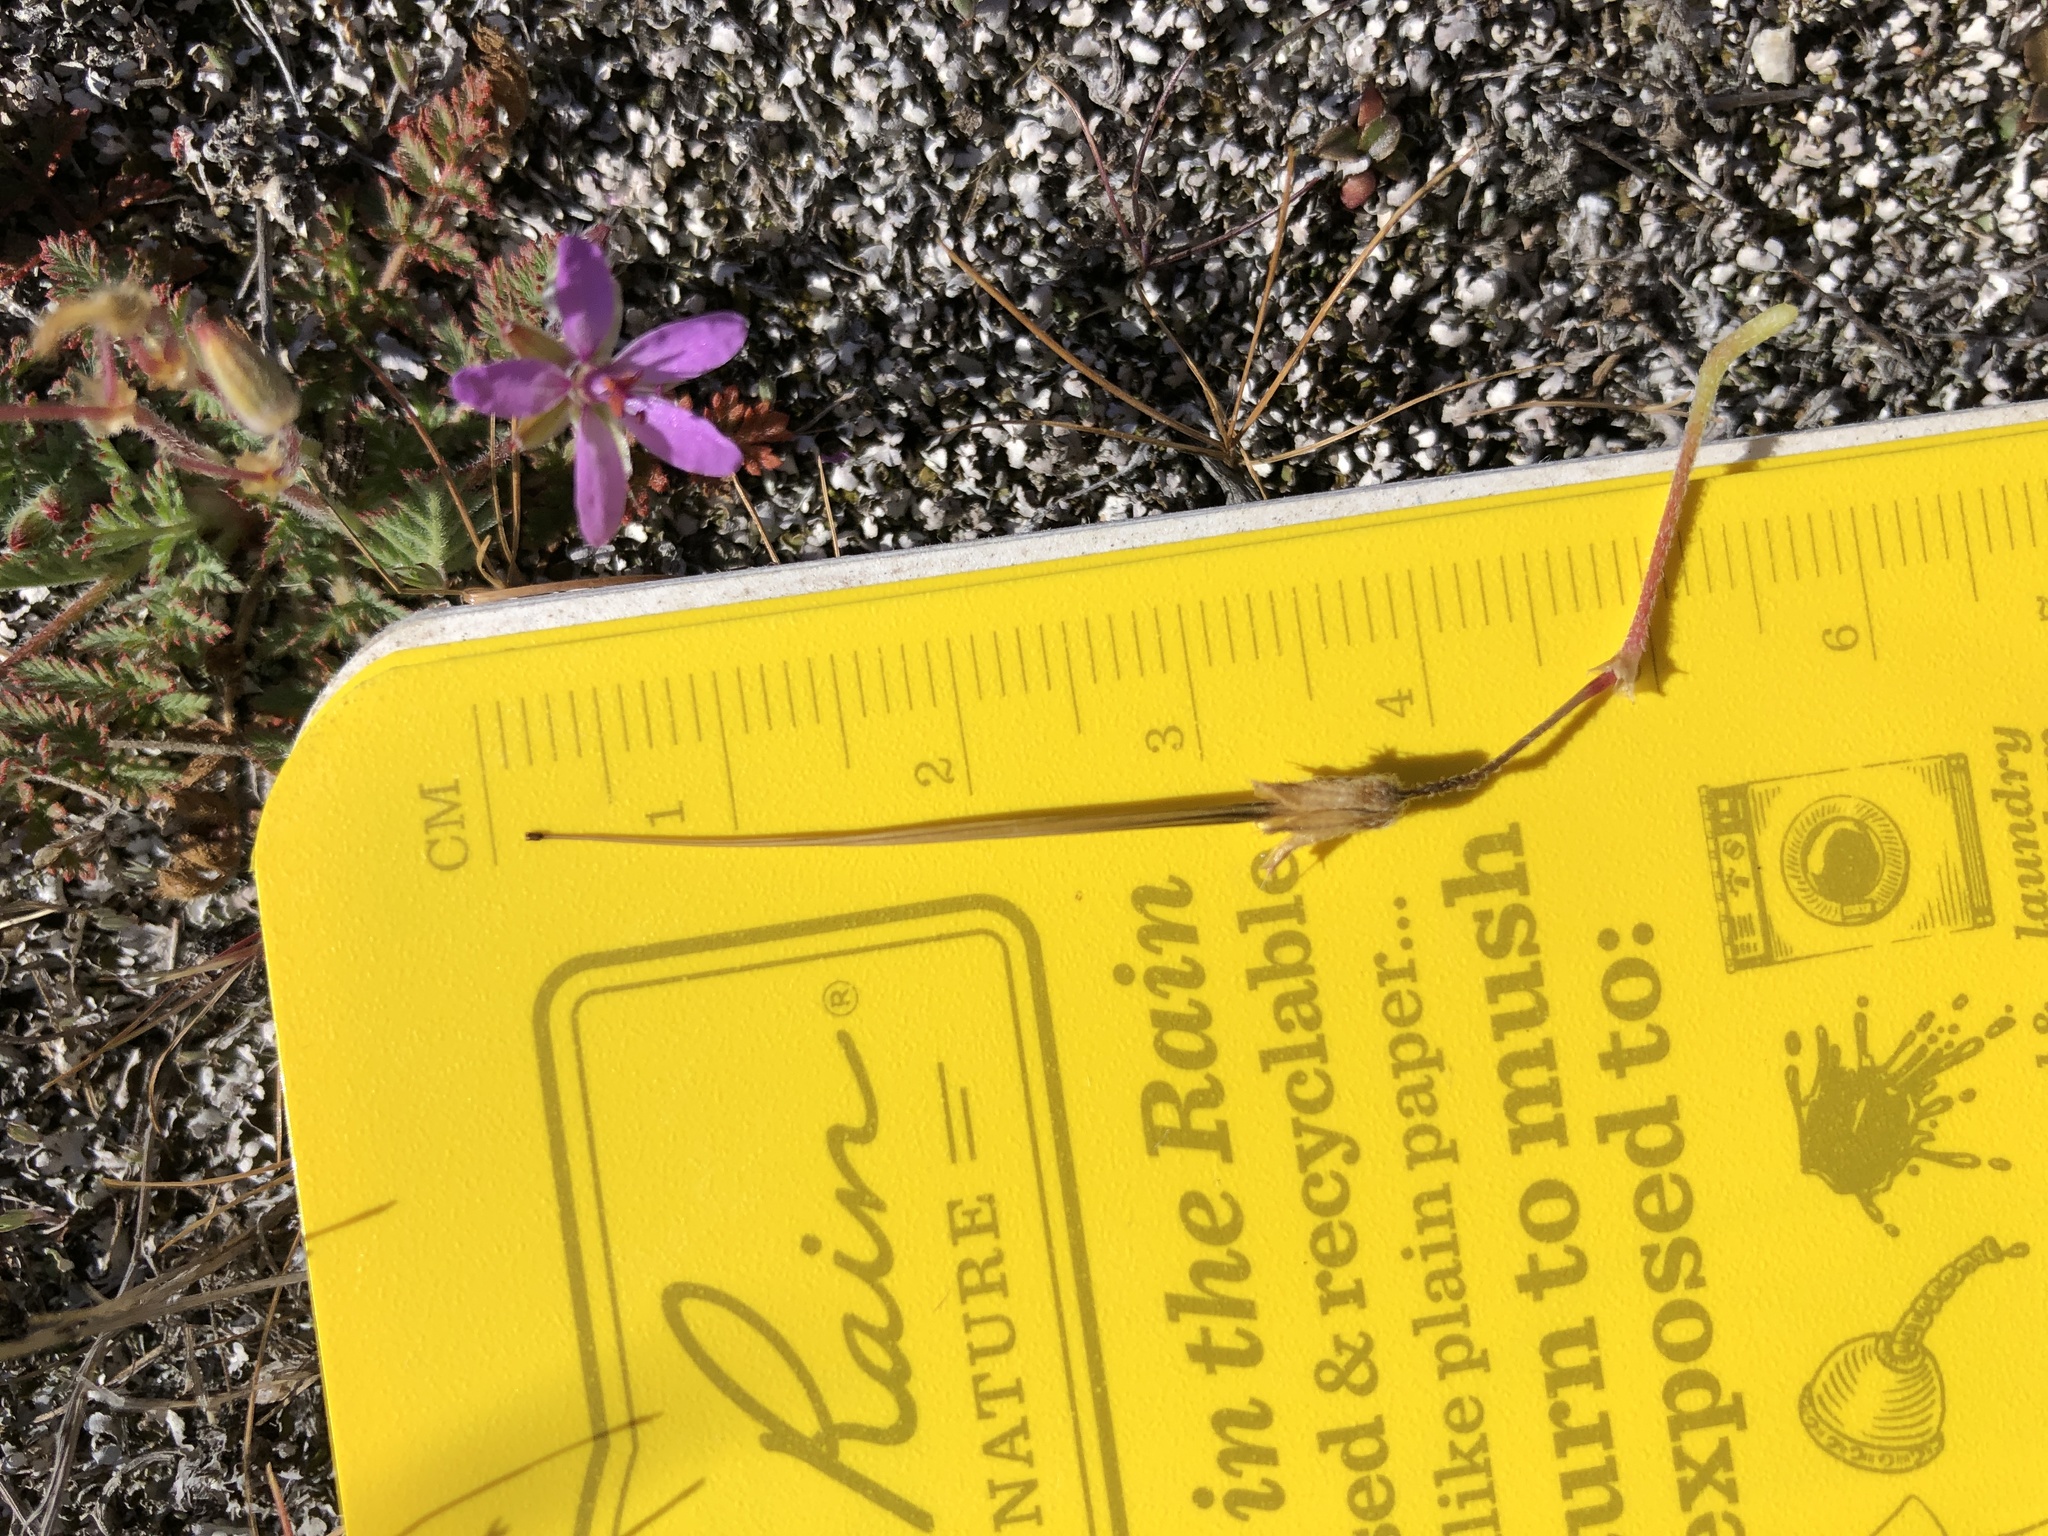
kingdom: Plantae
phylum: Tracheophyta
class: Magnoliopsida
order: Geraniales
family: Geraniaceae
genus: Erodium
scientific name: Erodium cicutarium
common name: Common stork's-bill
